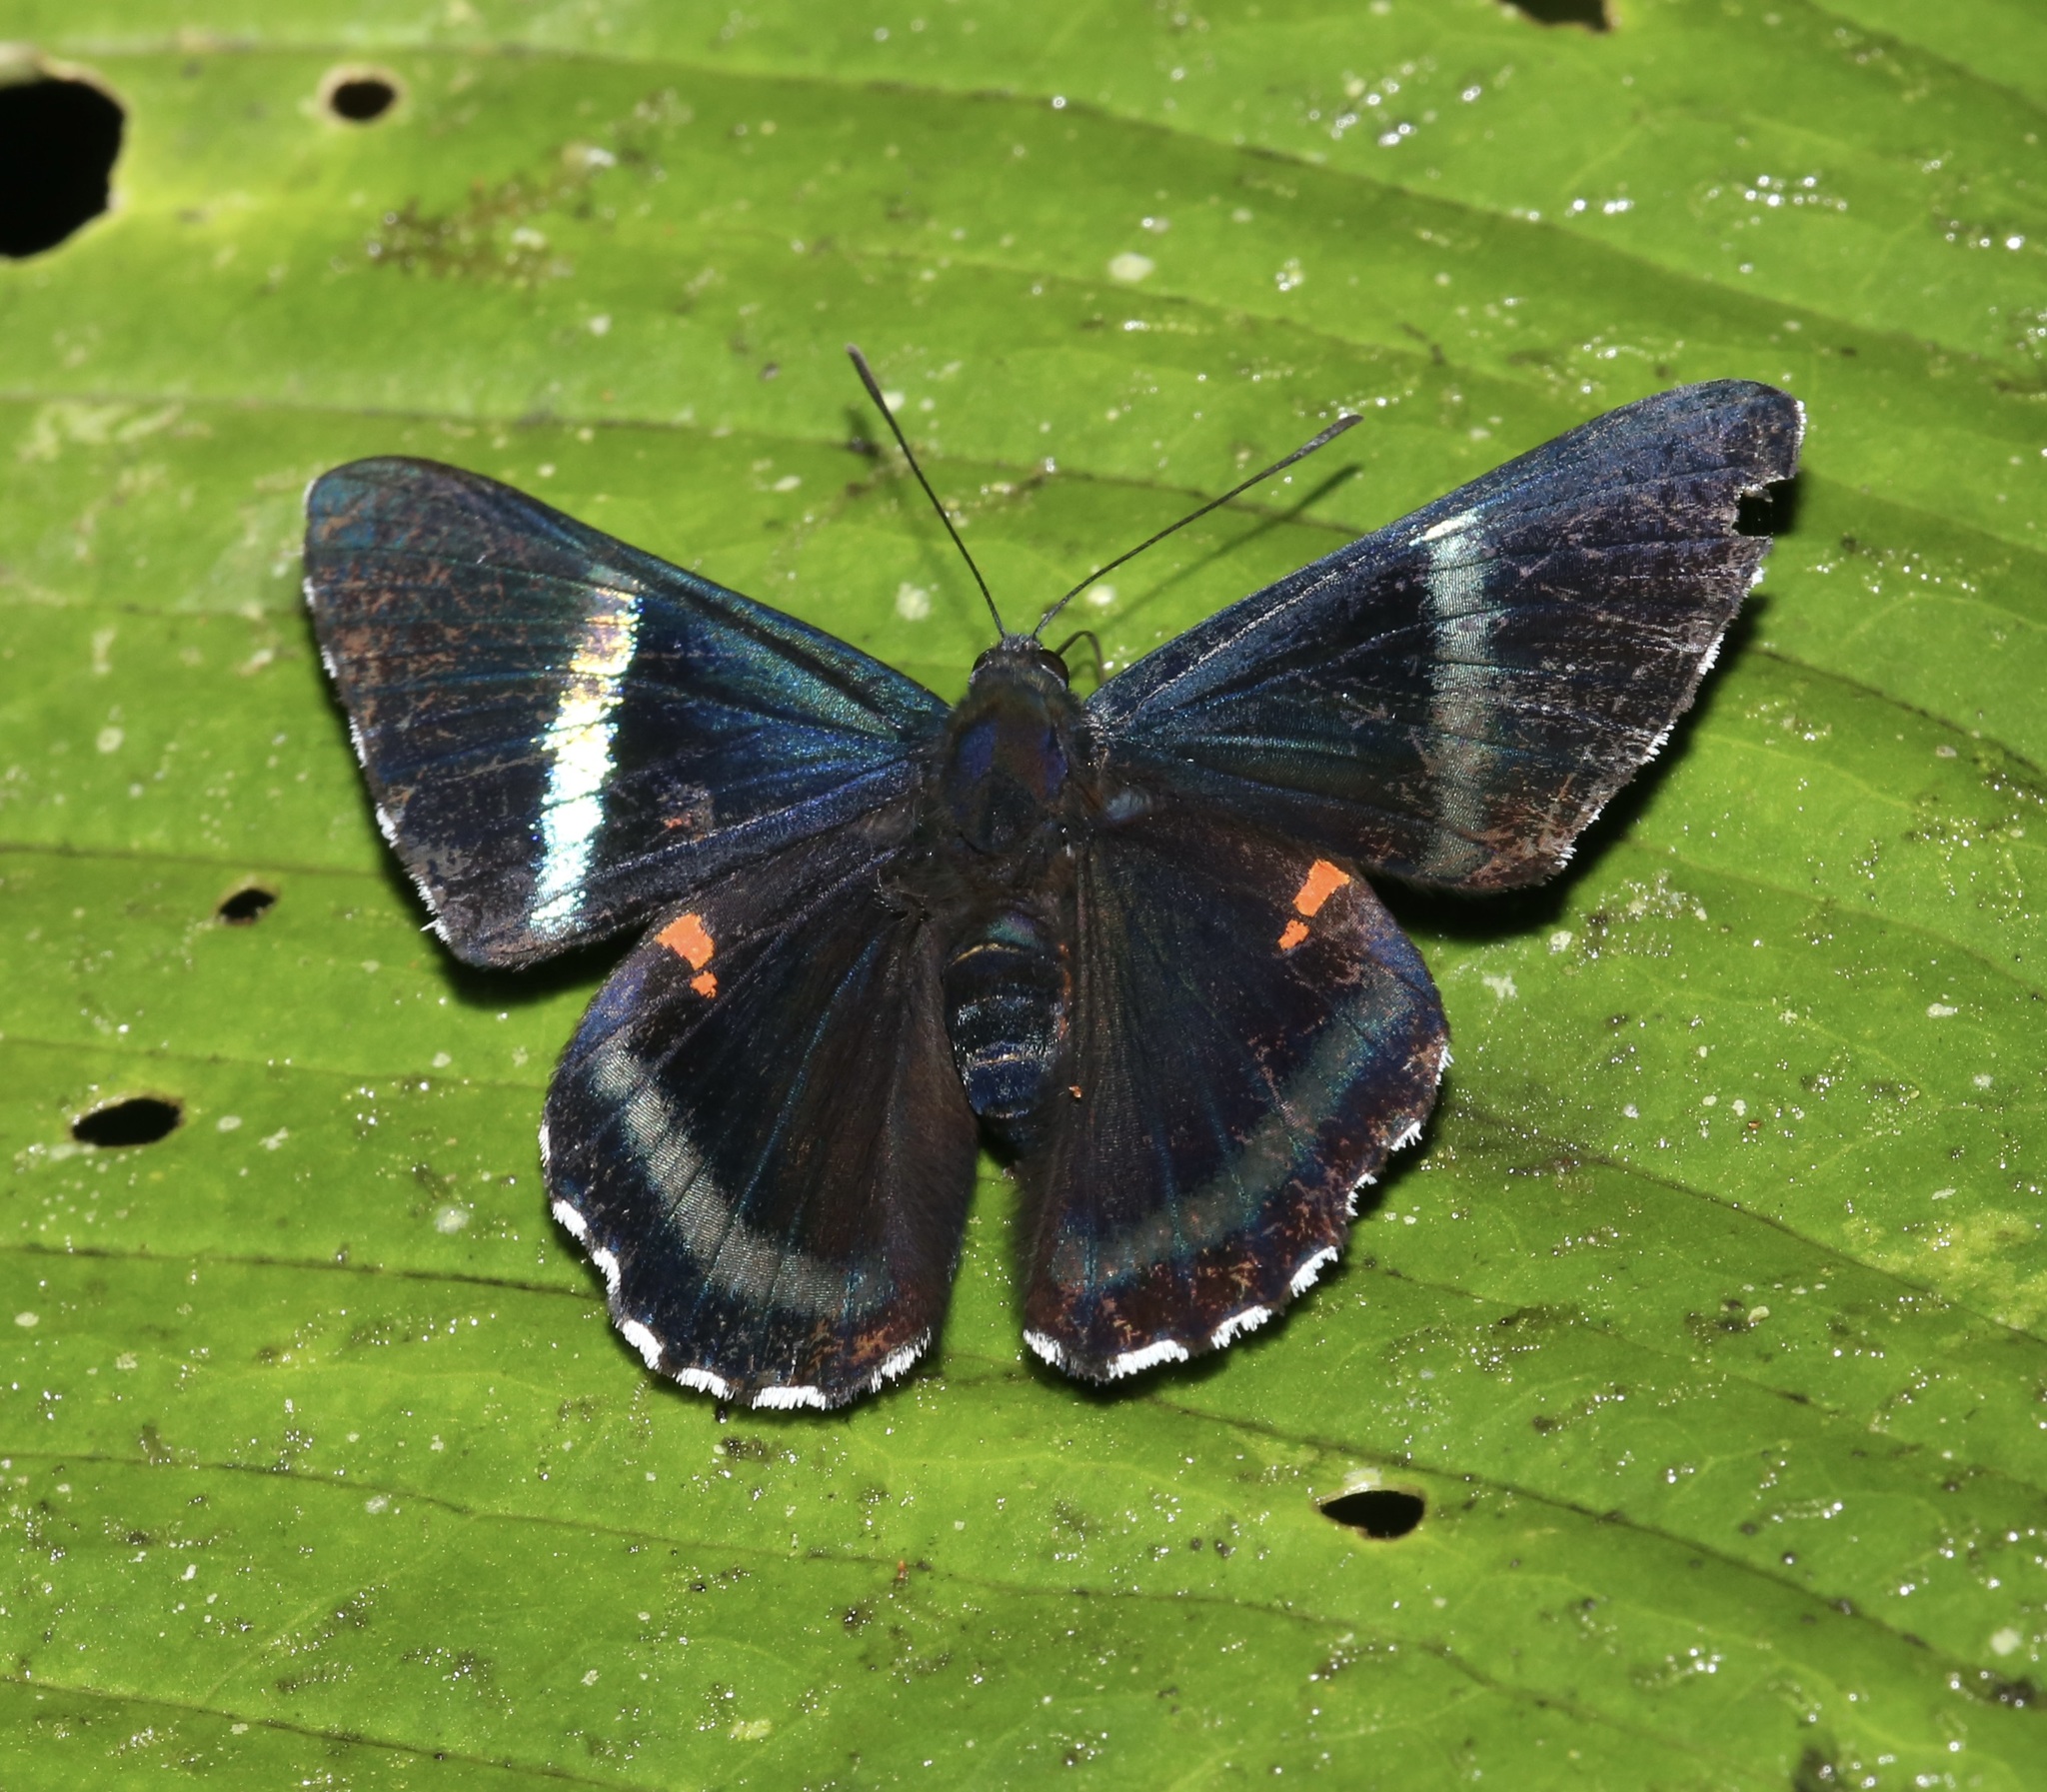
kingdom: Animalia
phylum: Arthropoda
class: Insecta
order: Lepidoptera
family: Lycaenidae
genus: Necyria
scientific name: Necyria bellona
